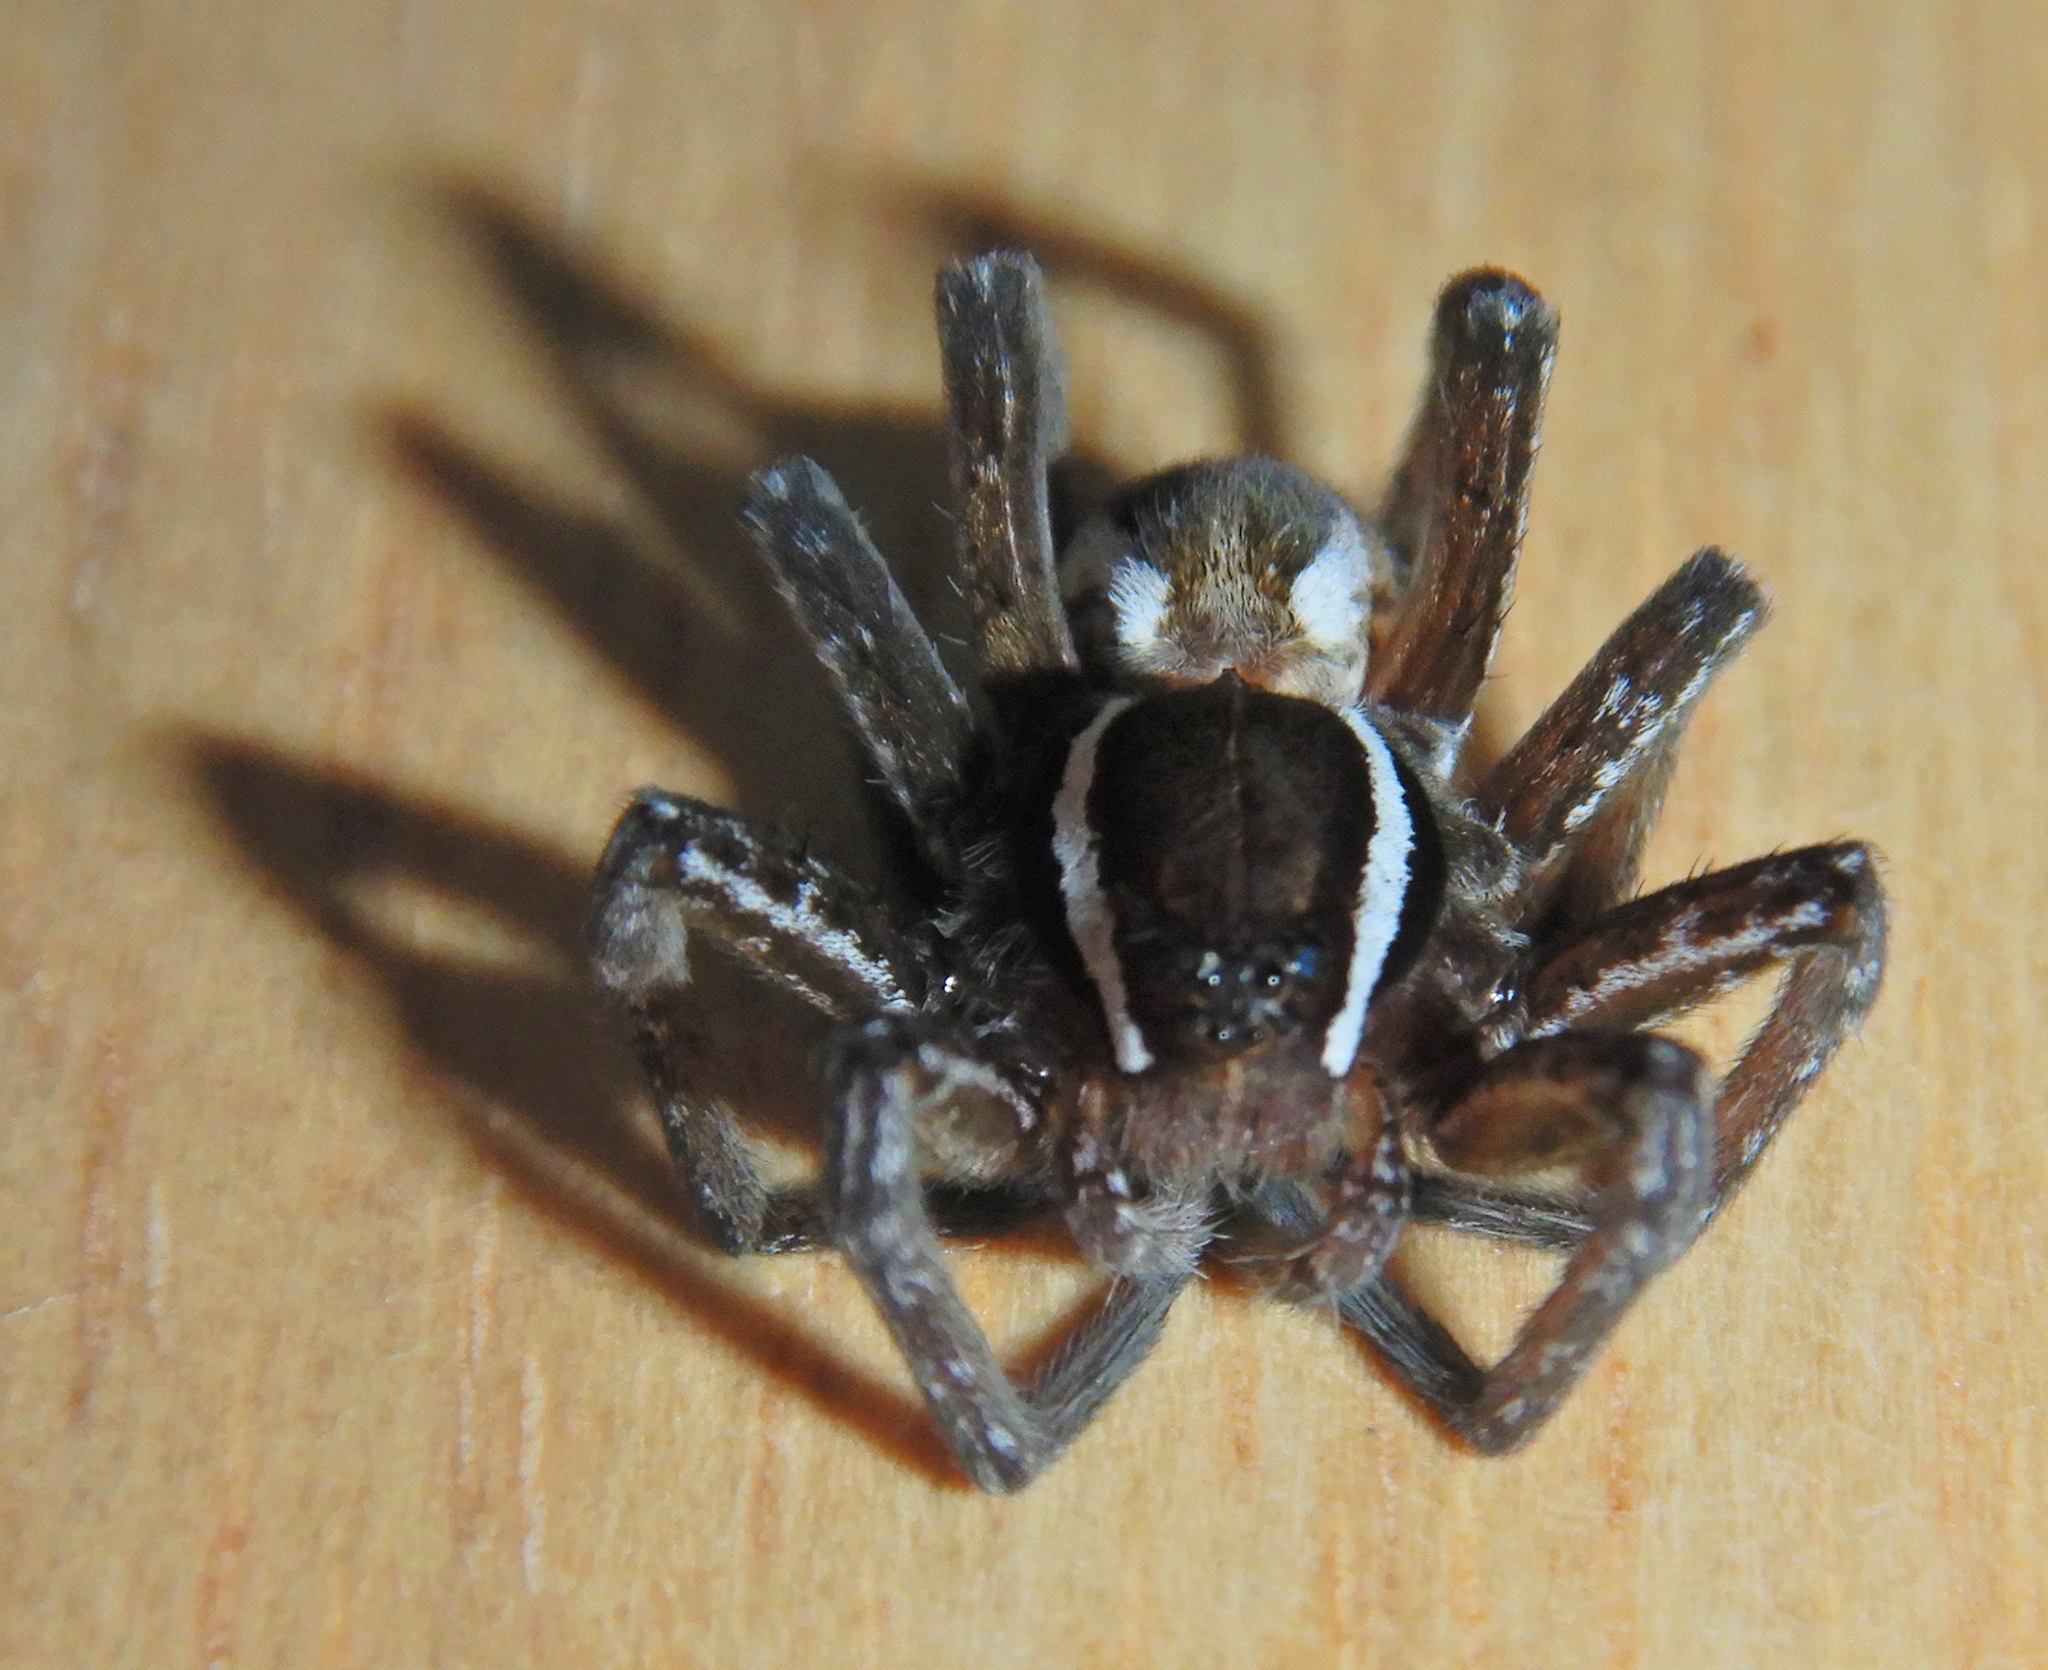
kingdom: Animalia
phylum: Arthropoda
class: Arachnida
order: Araneae
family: Pisauridae
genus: Dolomedes
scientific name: Dolomedes triton
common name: Six-spotted fishing spider
